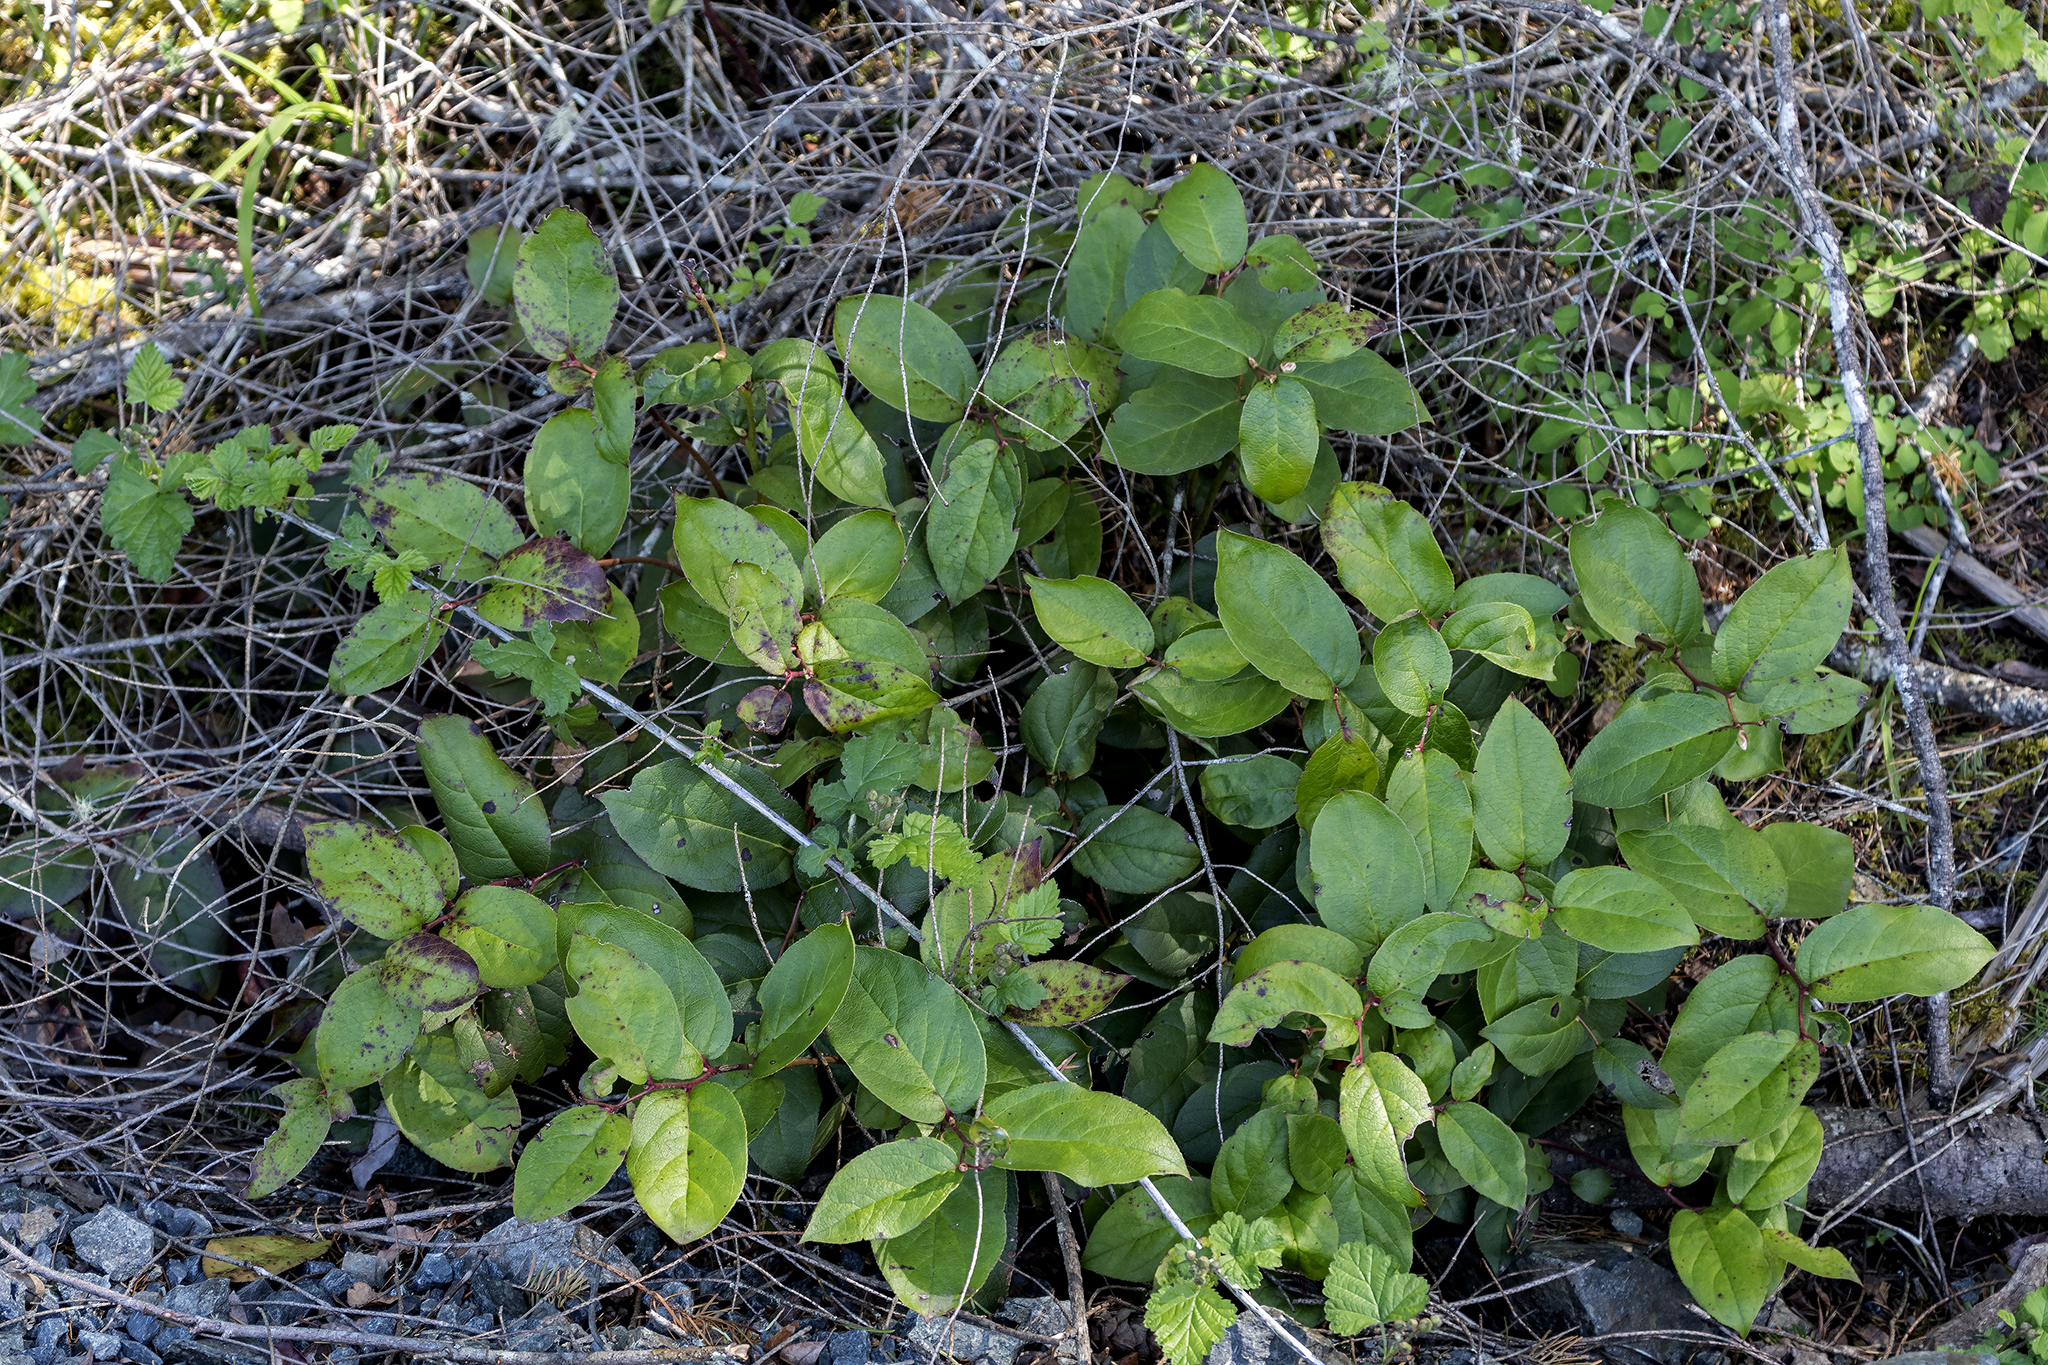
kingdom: Plantae
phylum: Tracheophyta
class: Magnoliopsida
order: Ericales
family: Ericaceae
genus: Gaultheria
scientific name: Gaultheria shallon
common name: Shallon
